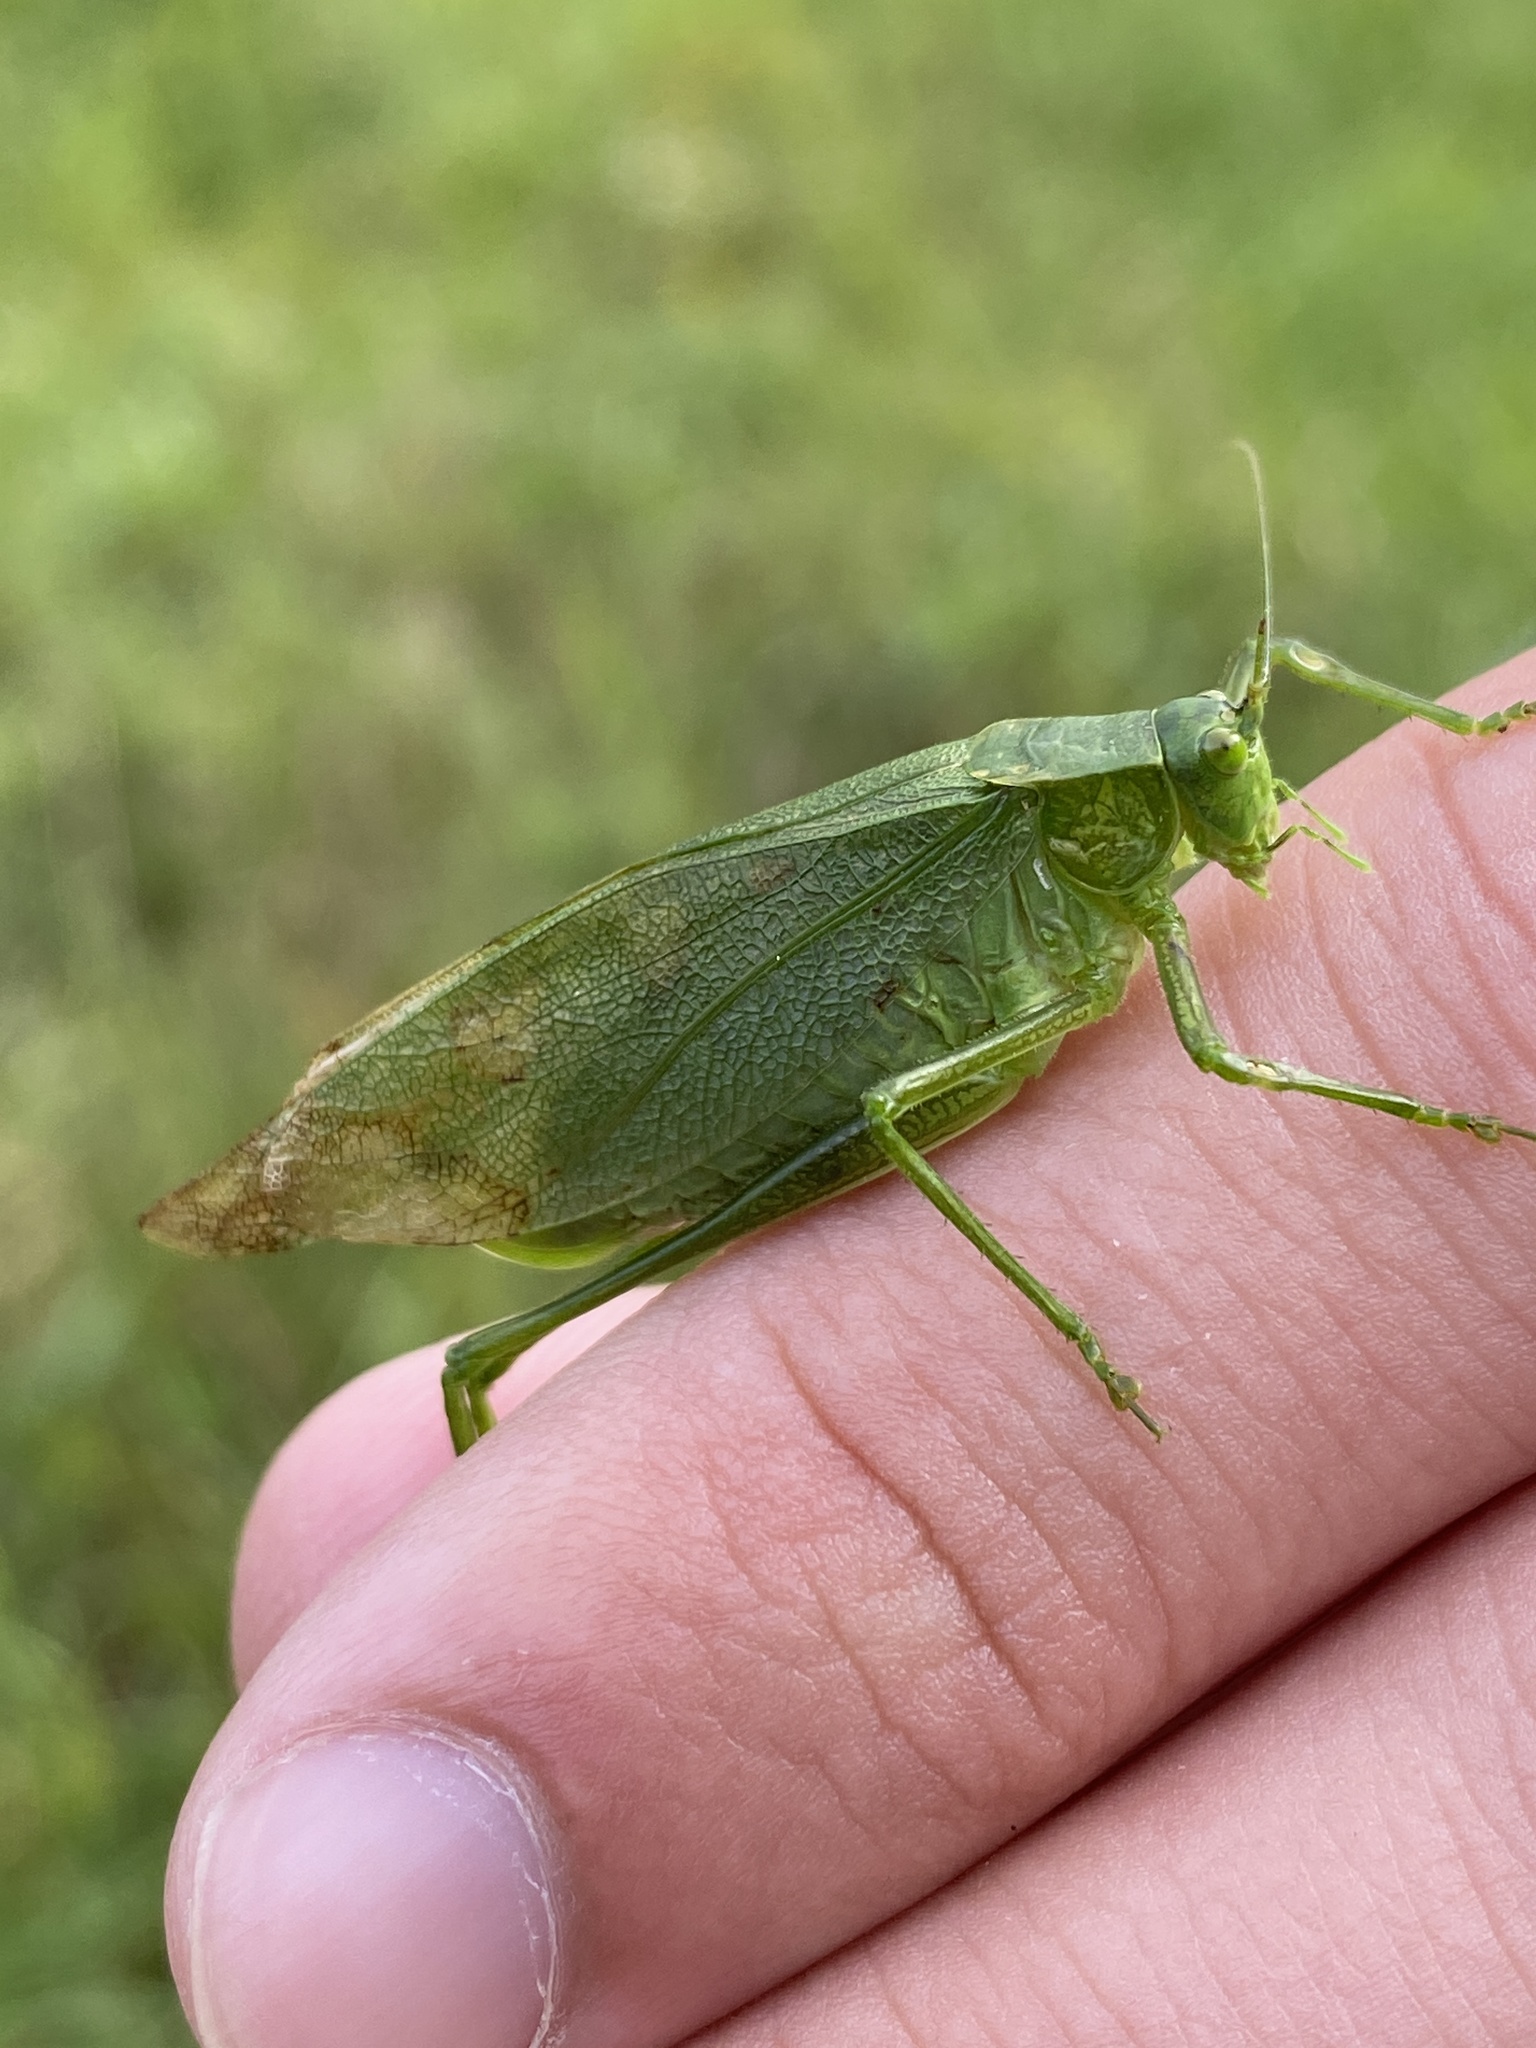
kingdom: Animalia
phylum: Arthropoda
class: Insecta
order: Orthoptera
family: Tettigoniidae
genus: Scudderia
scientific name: Scudderia pistillata
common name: Broad-winged bush-katydid
